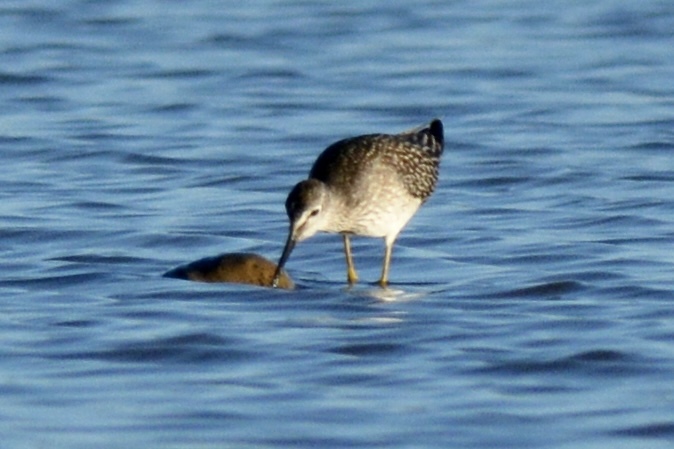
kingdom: Animalia
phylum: Chordata
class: Aves
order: Charadriiformes
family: Scolopacidae
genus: Tringa
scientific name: Tringa flavipes
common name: Lesser yellowlegs
